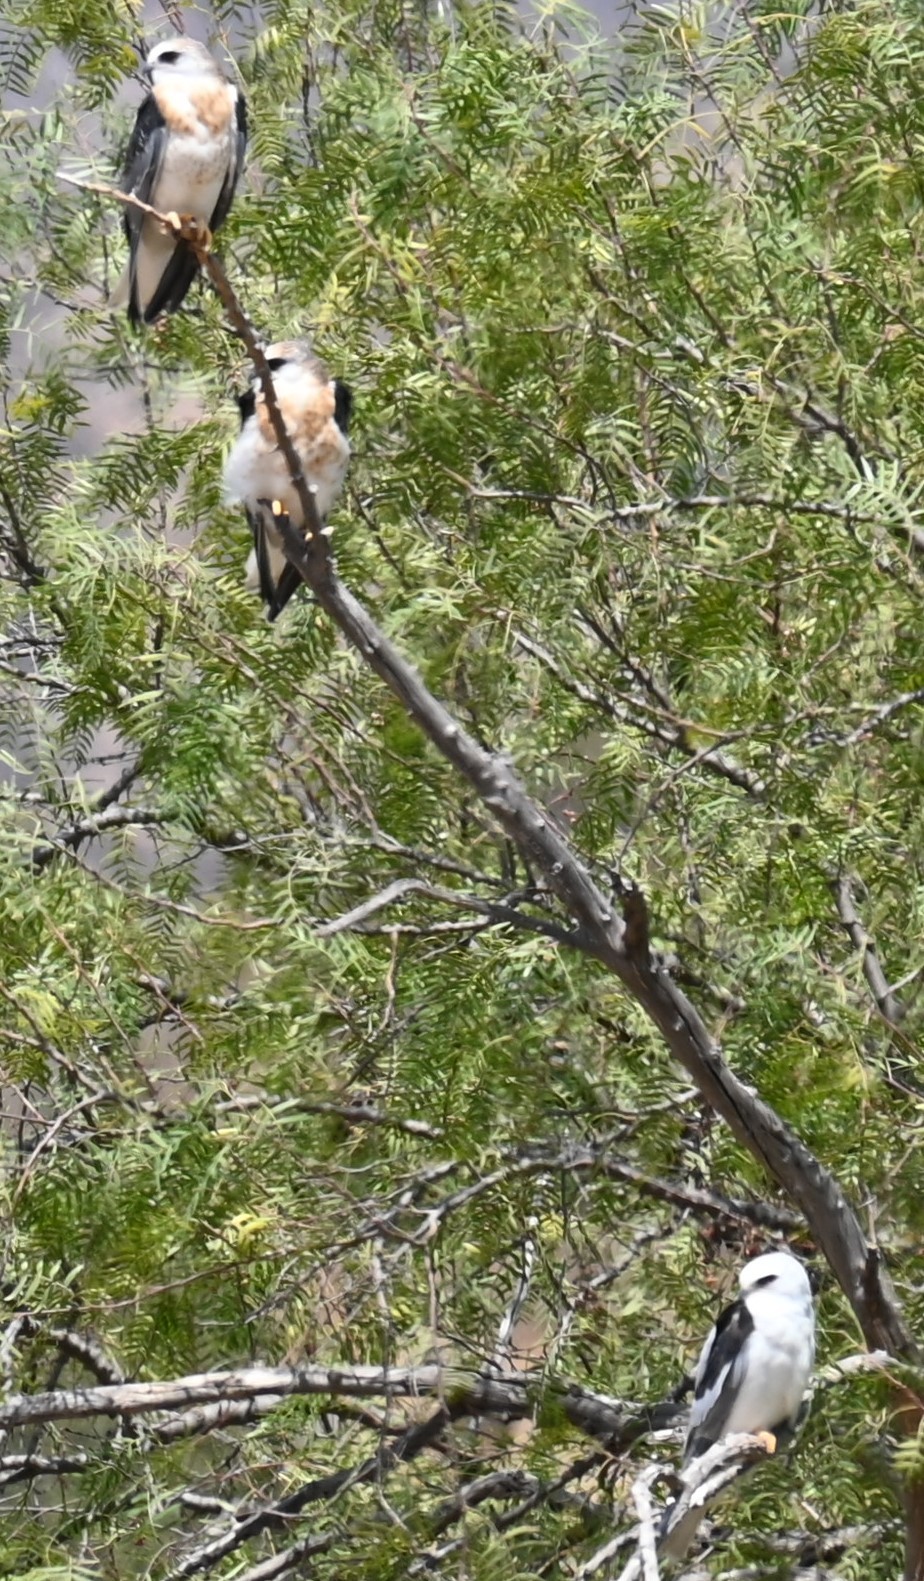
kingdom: Animalia
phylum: Chordata
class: Aves
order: Accipitriformes
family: Accipitridae
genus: Elanus
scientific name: Elanus leucurus
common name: White-tailed kite
